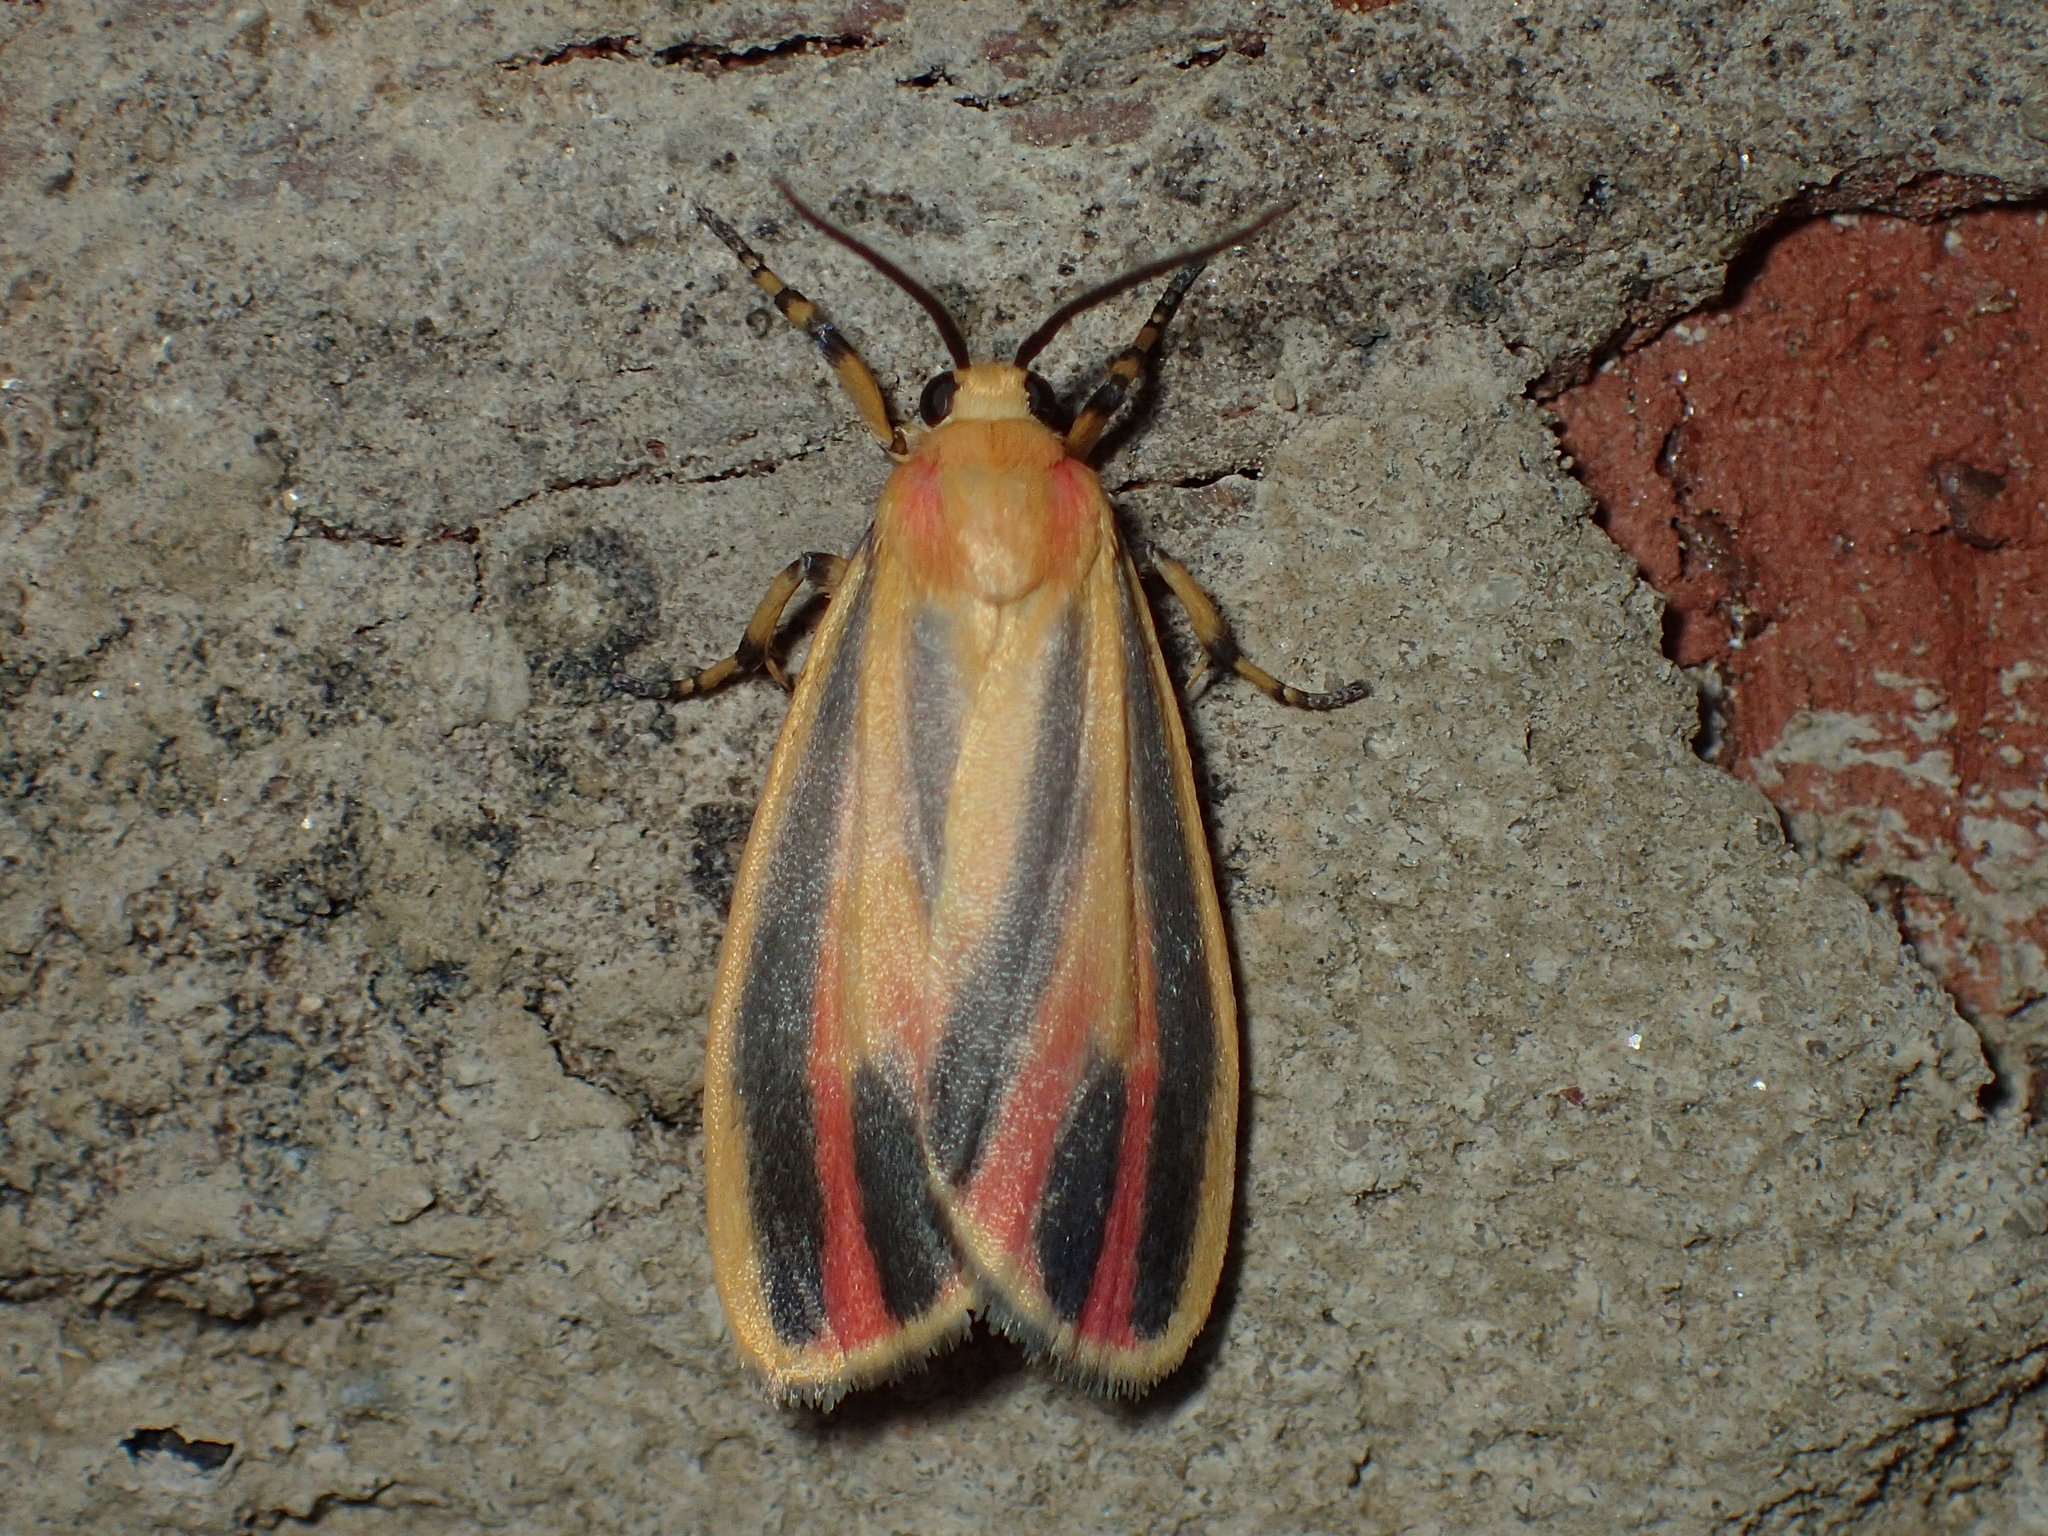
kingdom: Animalia
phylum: Arthropoda
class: Insecta
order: Lepidoptera
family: Erebidae
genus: Hypoprepia
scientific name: Hypoprepia fucosa
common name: Painted lichen moth
